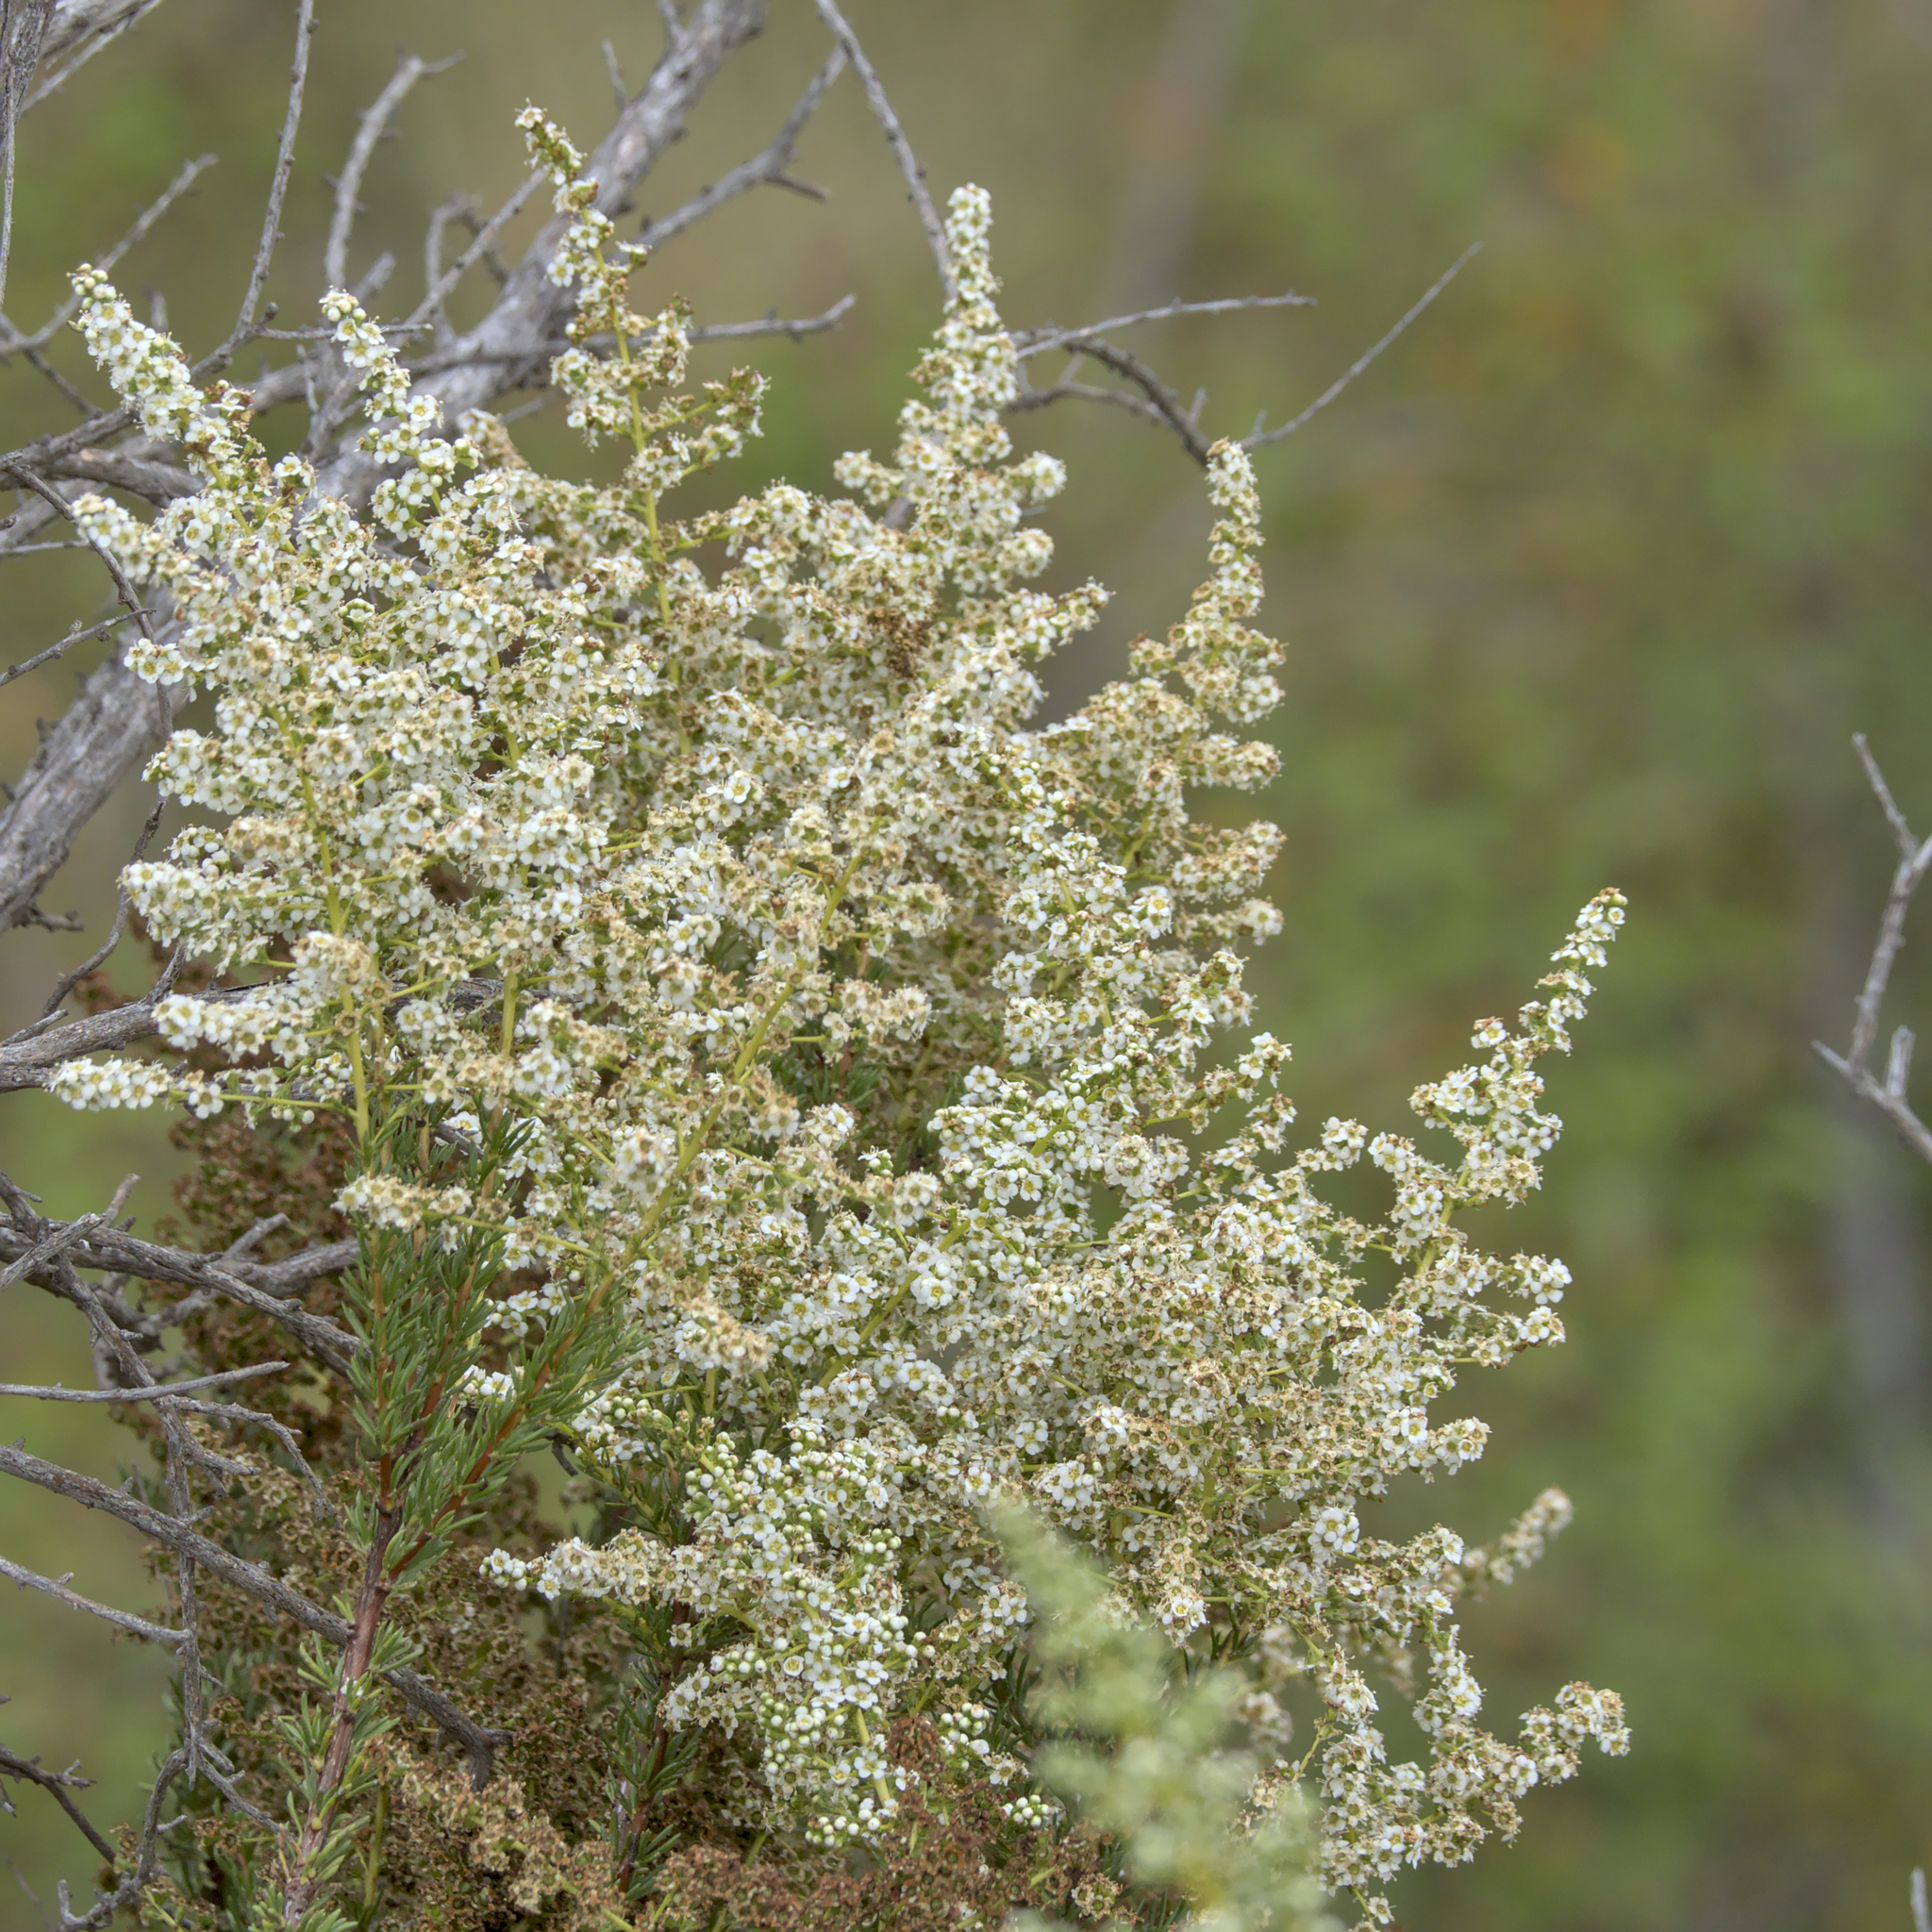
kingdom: Plantae
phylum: Tracheophyta
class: Magnoliopsida
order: Rosales
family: Rosaceae
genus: Adenostoma
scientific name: Adenostoma fasciculatum
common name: Chamise
